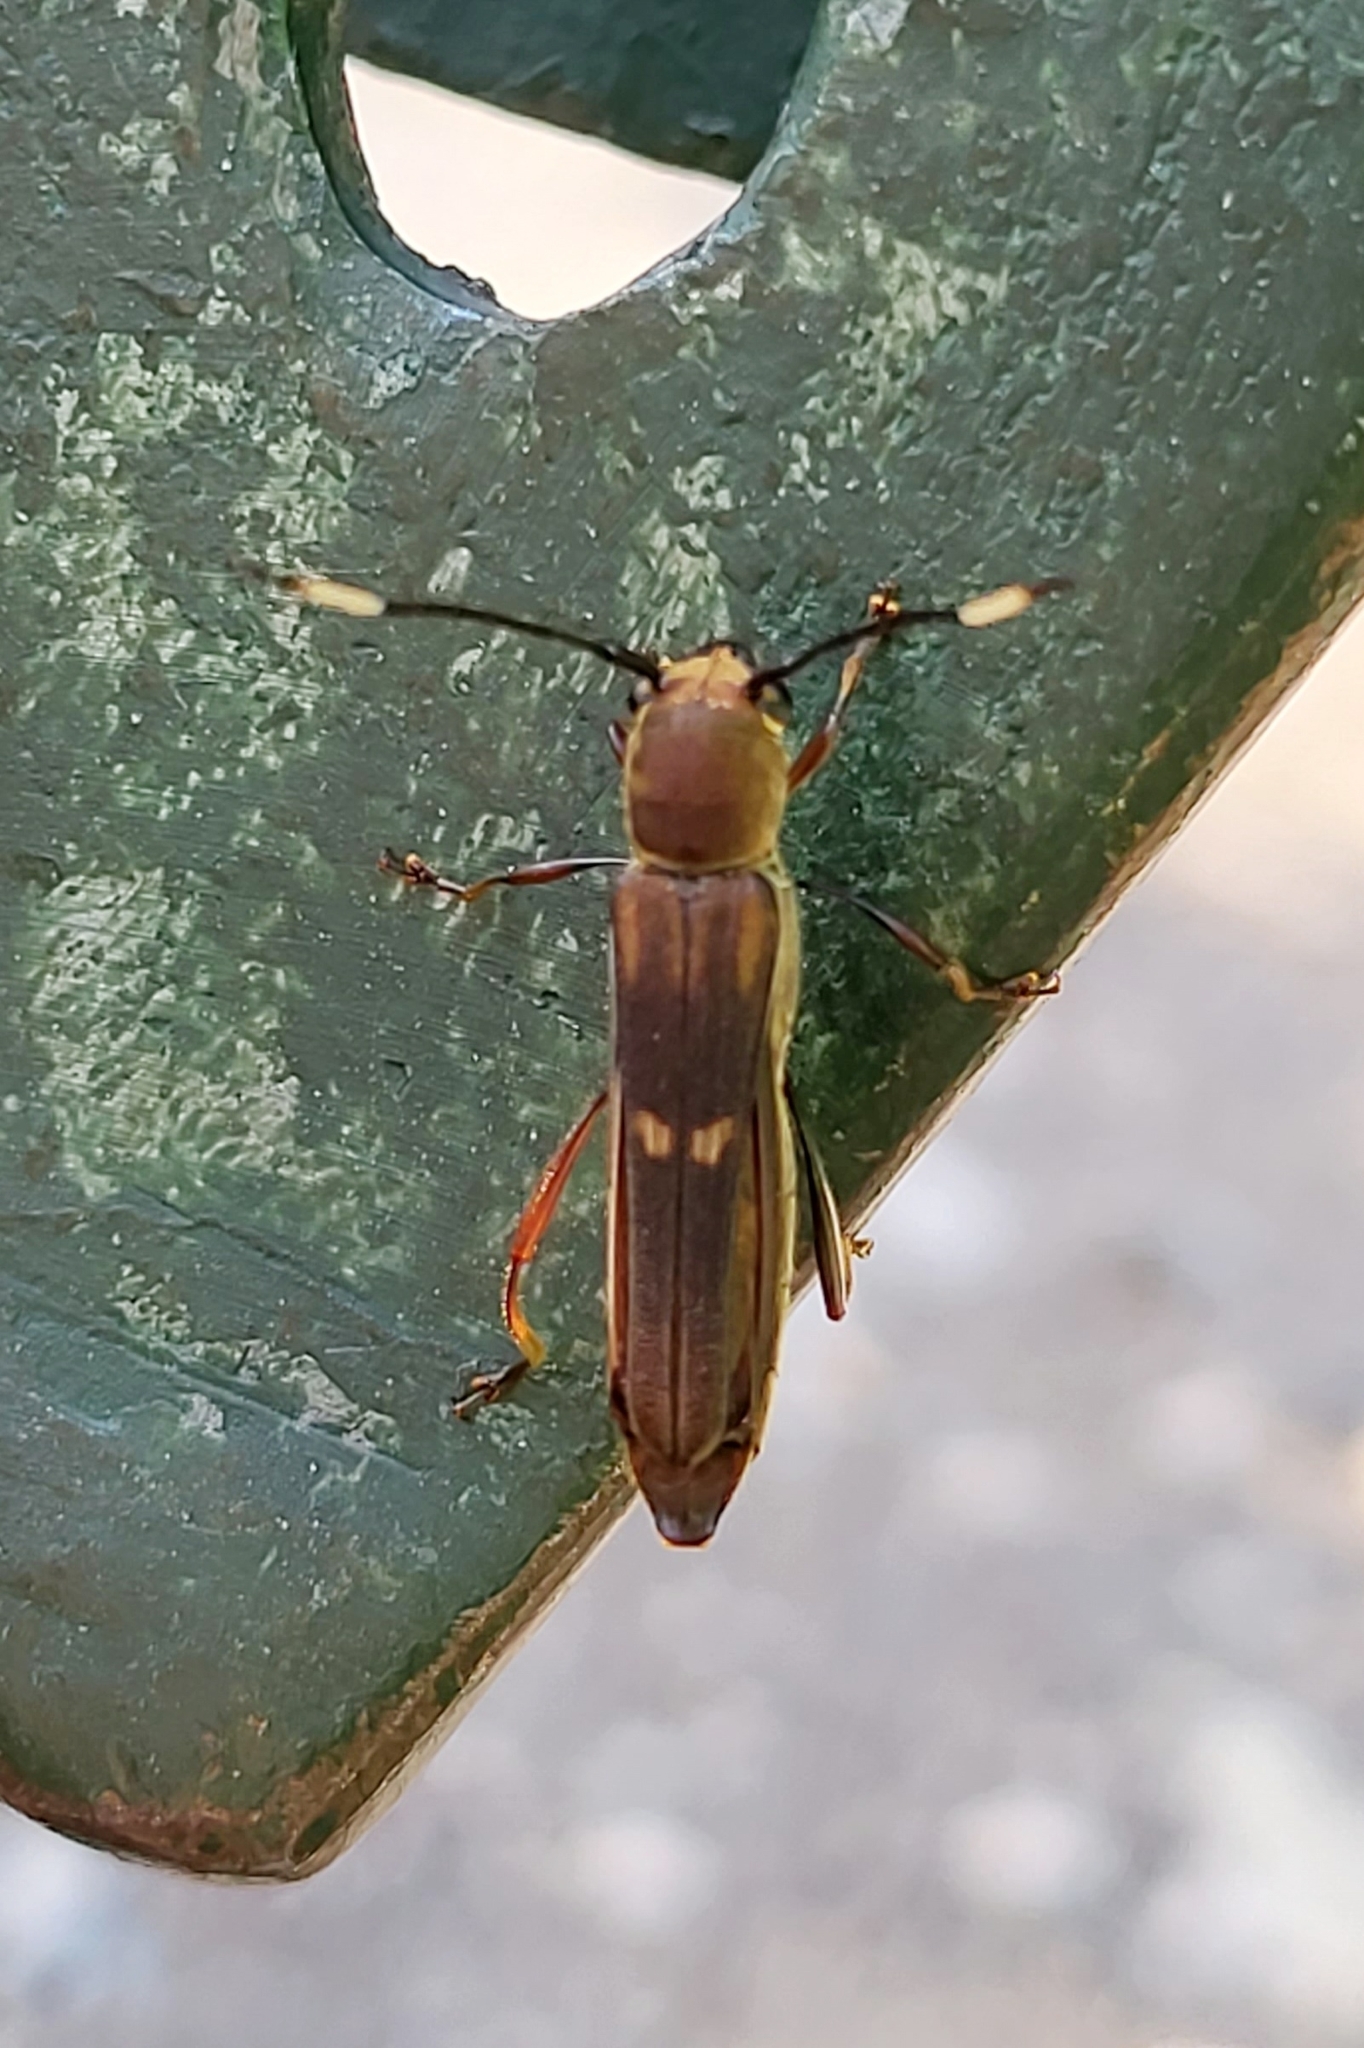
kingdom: Animalia
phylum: Arthropoda
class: Insecta
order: Coleoptera
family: Cerambycidae
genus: Thranius
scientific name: Thranius bimaculatus
